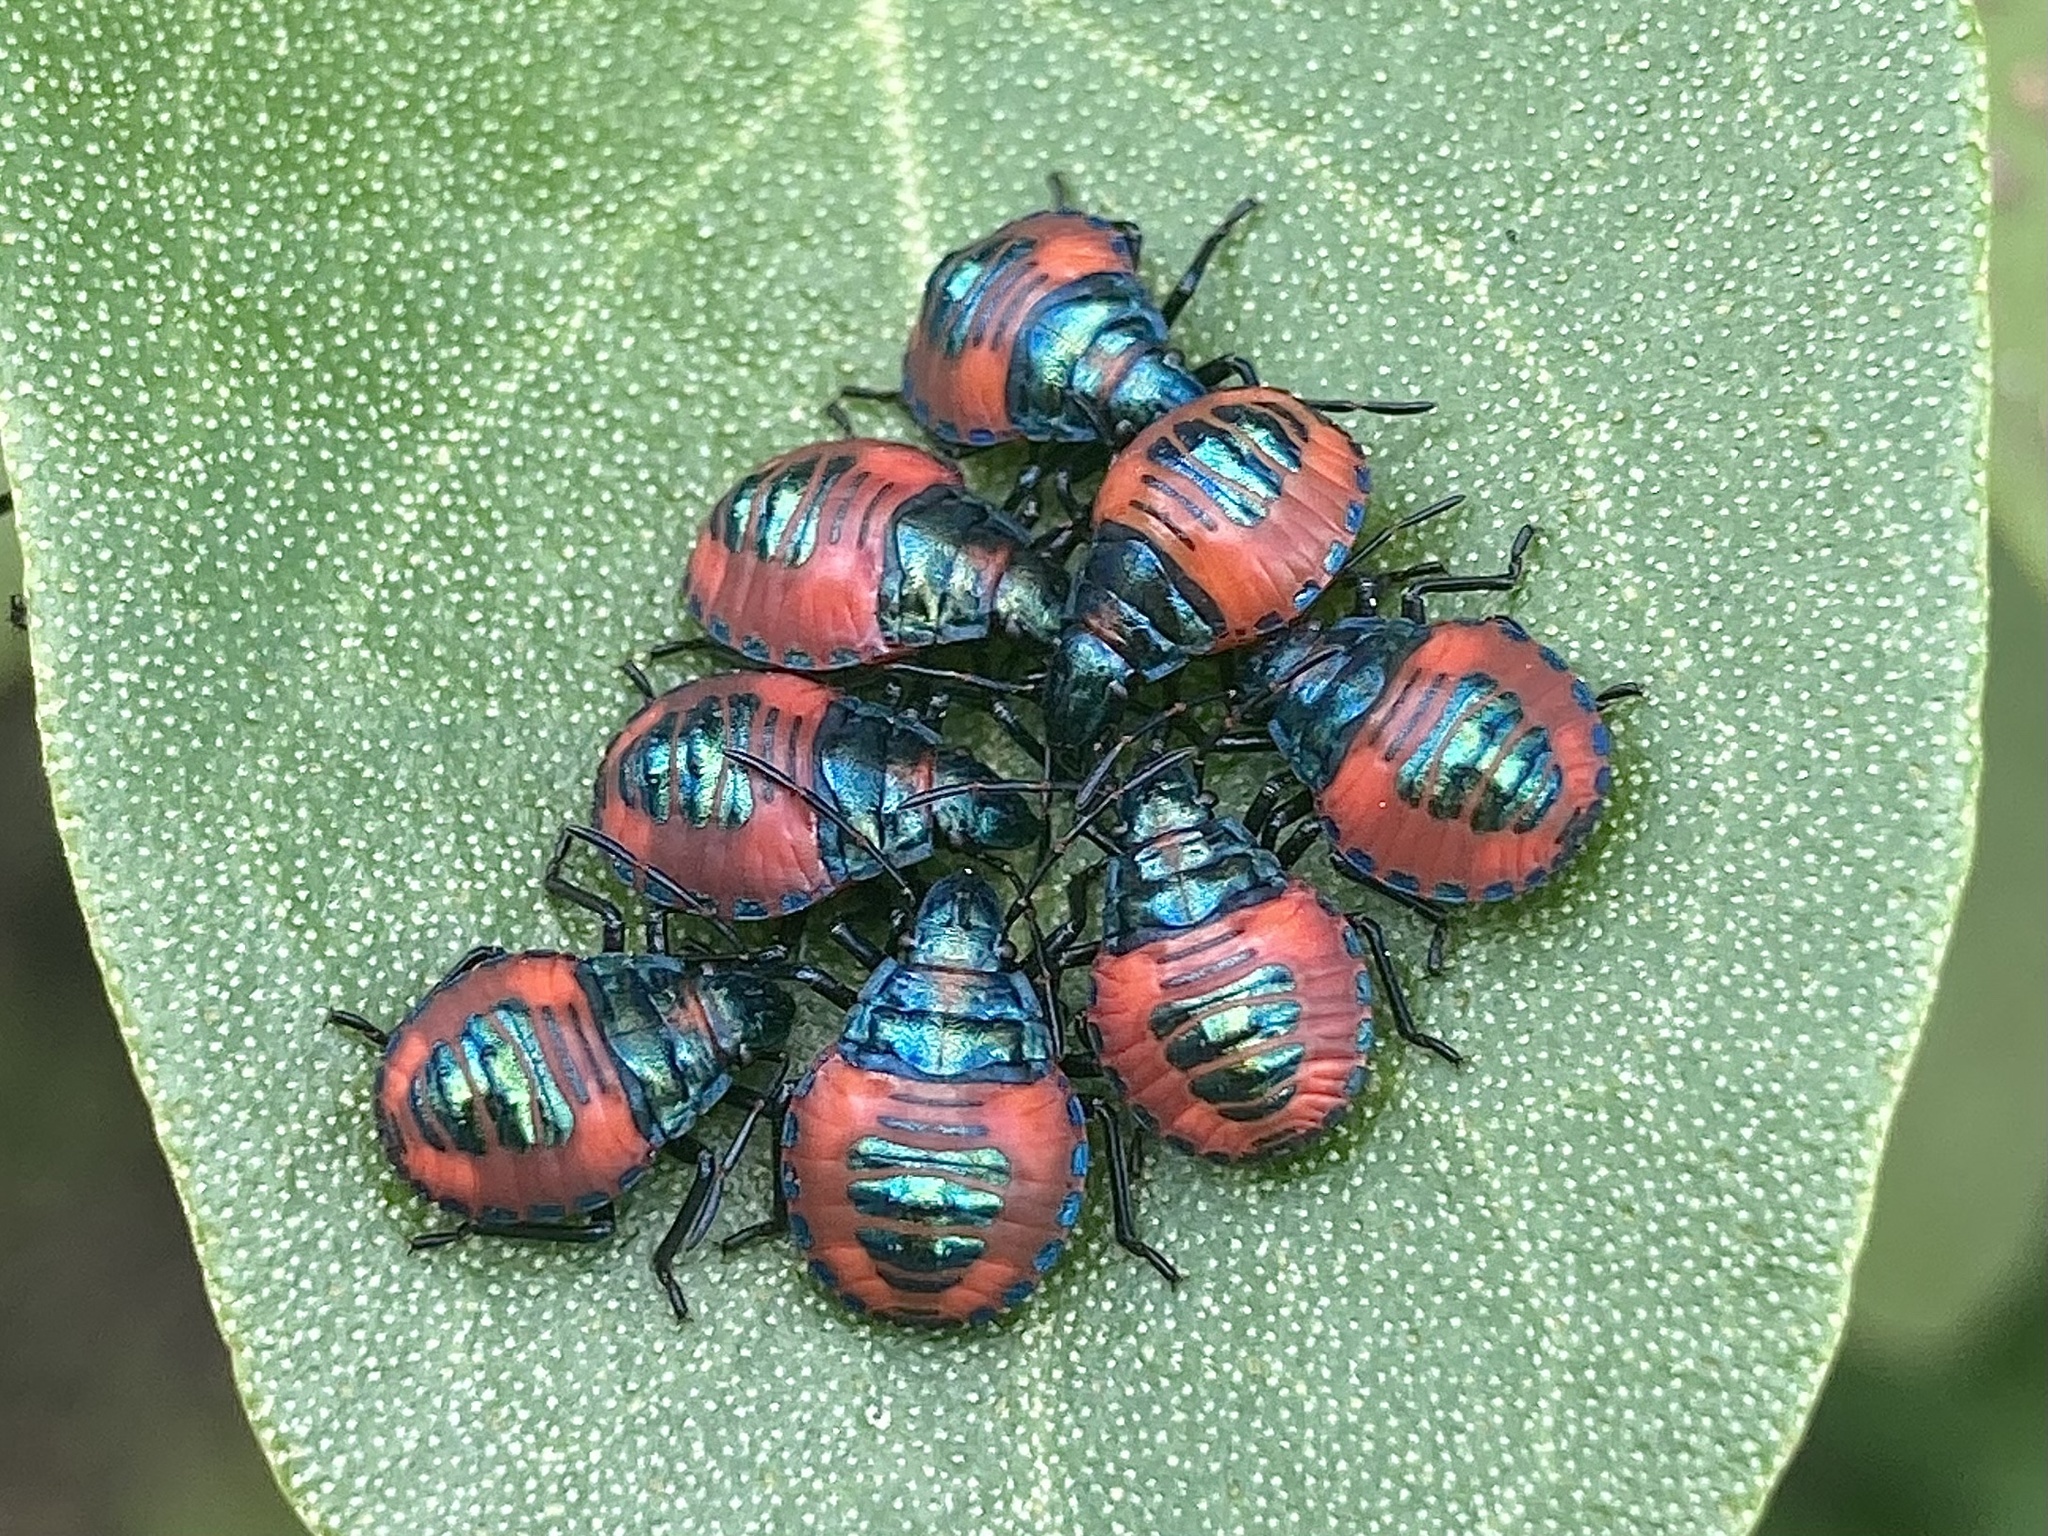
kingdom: Animalia
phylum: Arthropoda
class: Insecta
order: Hemiptera
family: Scutelleridae
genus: Tectocoris
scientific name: Tectocoris diophthalmus
